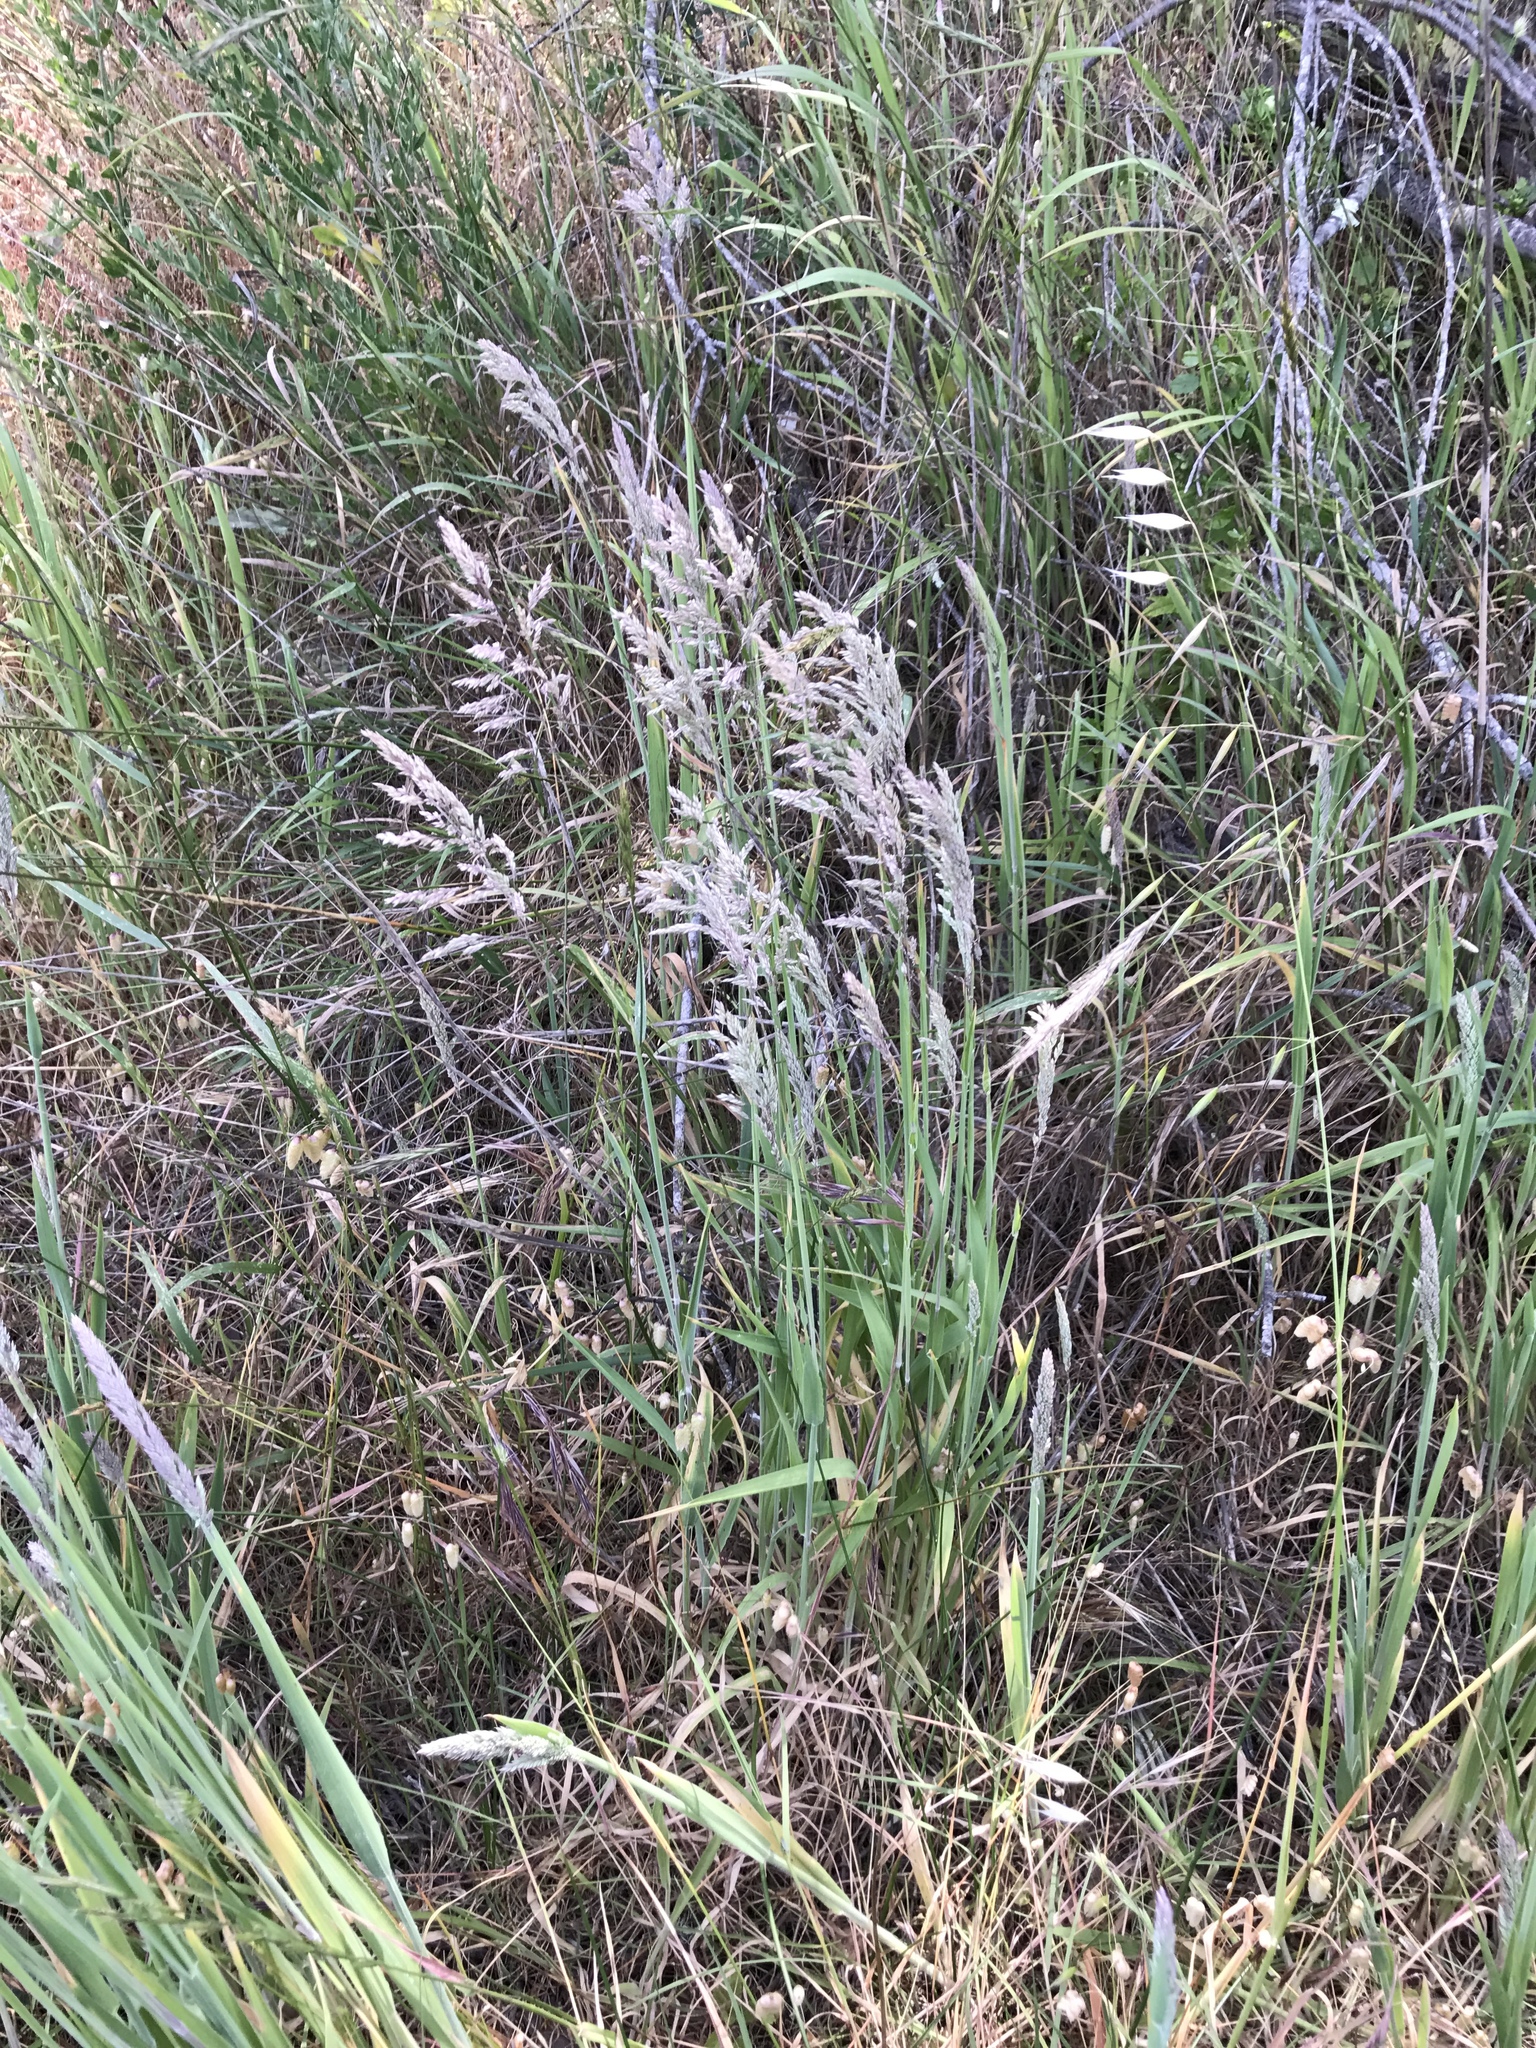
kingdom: Plantae
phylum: Tracheophyta
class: Liliopsida
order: Poales
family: Poaceae
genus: Holcus
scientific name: Holcus lanatus
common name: Yorkshire-fog
